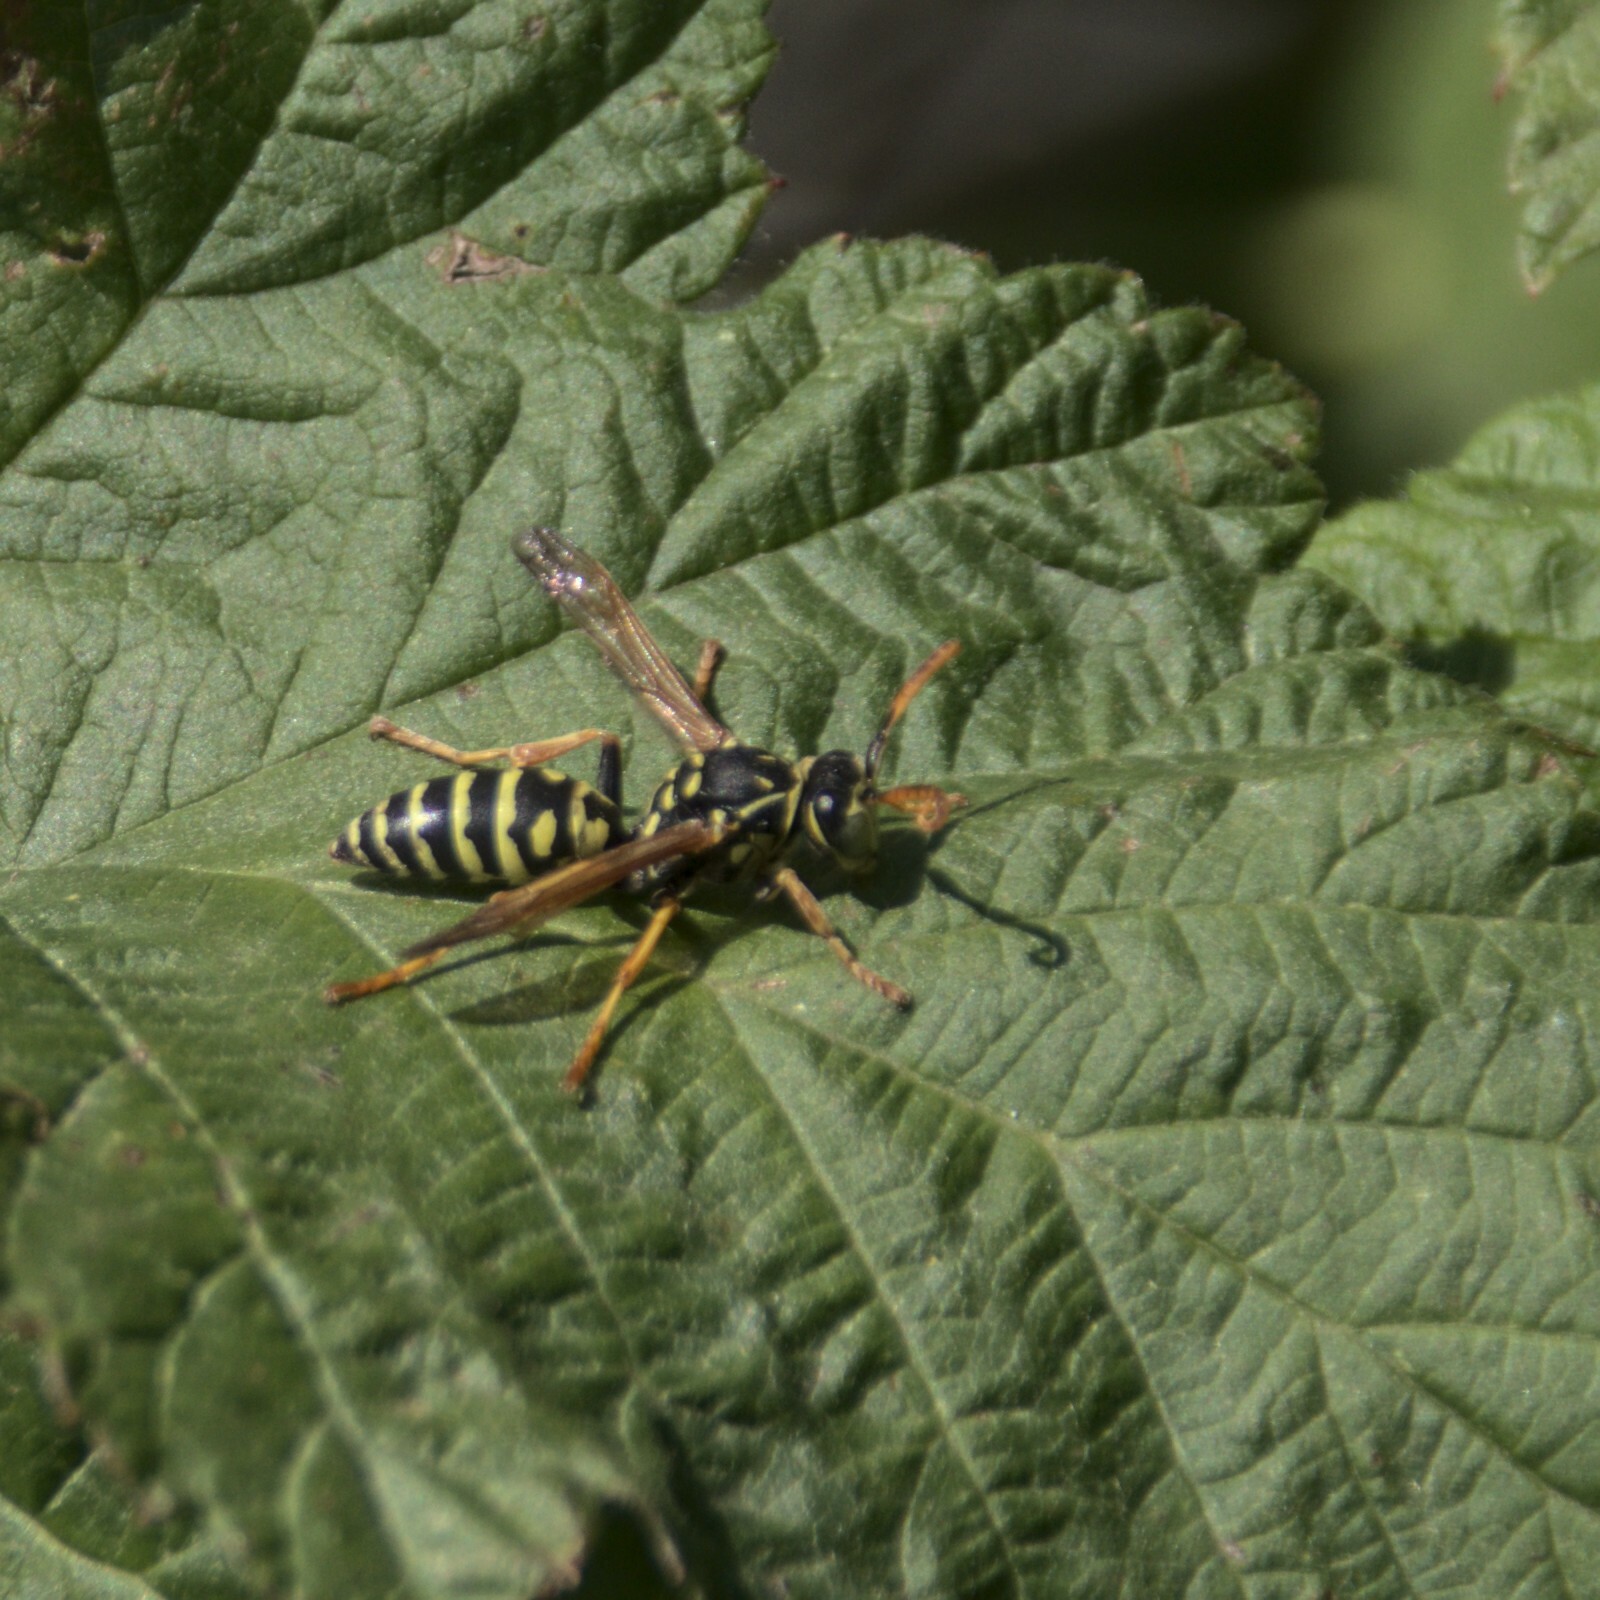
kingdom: Animalia
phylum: Arthropoda
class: Insecta
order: Hymenoptera
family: Eumenidae
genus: Polistes
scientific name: Polistes dominula
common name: Paper wasp
